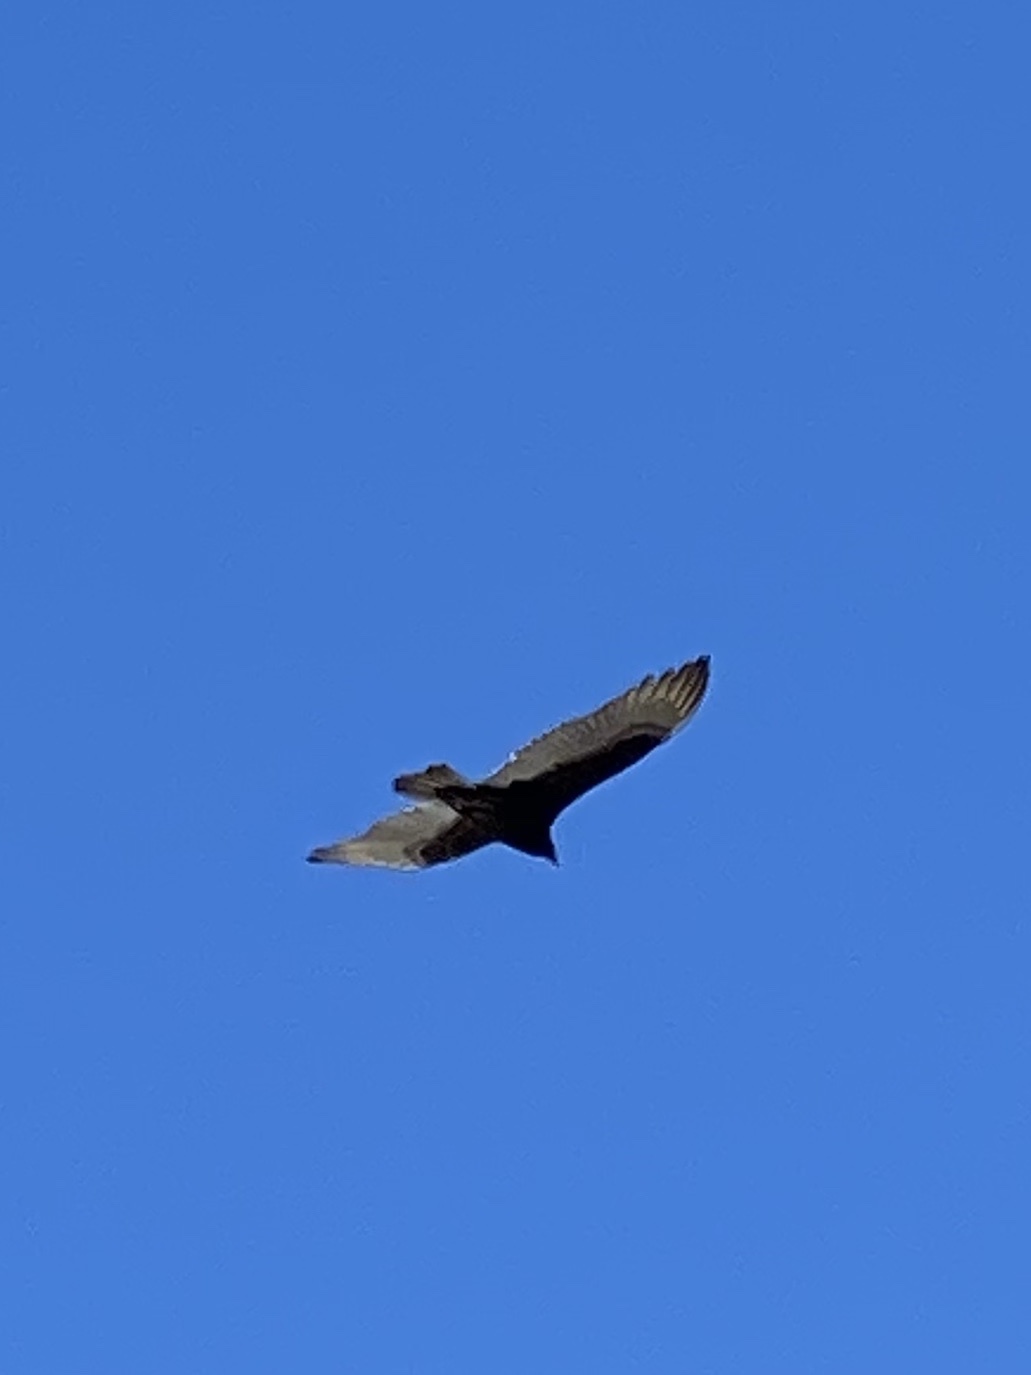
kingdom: Animalia
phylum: Chordata
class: Aves
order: Accipitriformes
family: Cathartidae
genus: Cathartes
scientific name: Cathartes aura
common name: Turkey vulture
